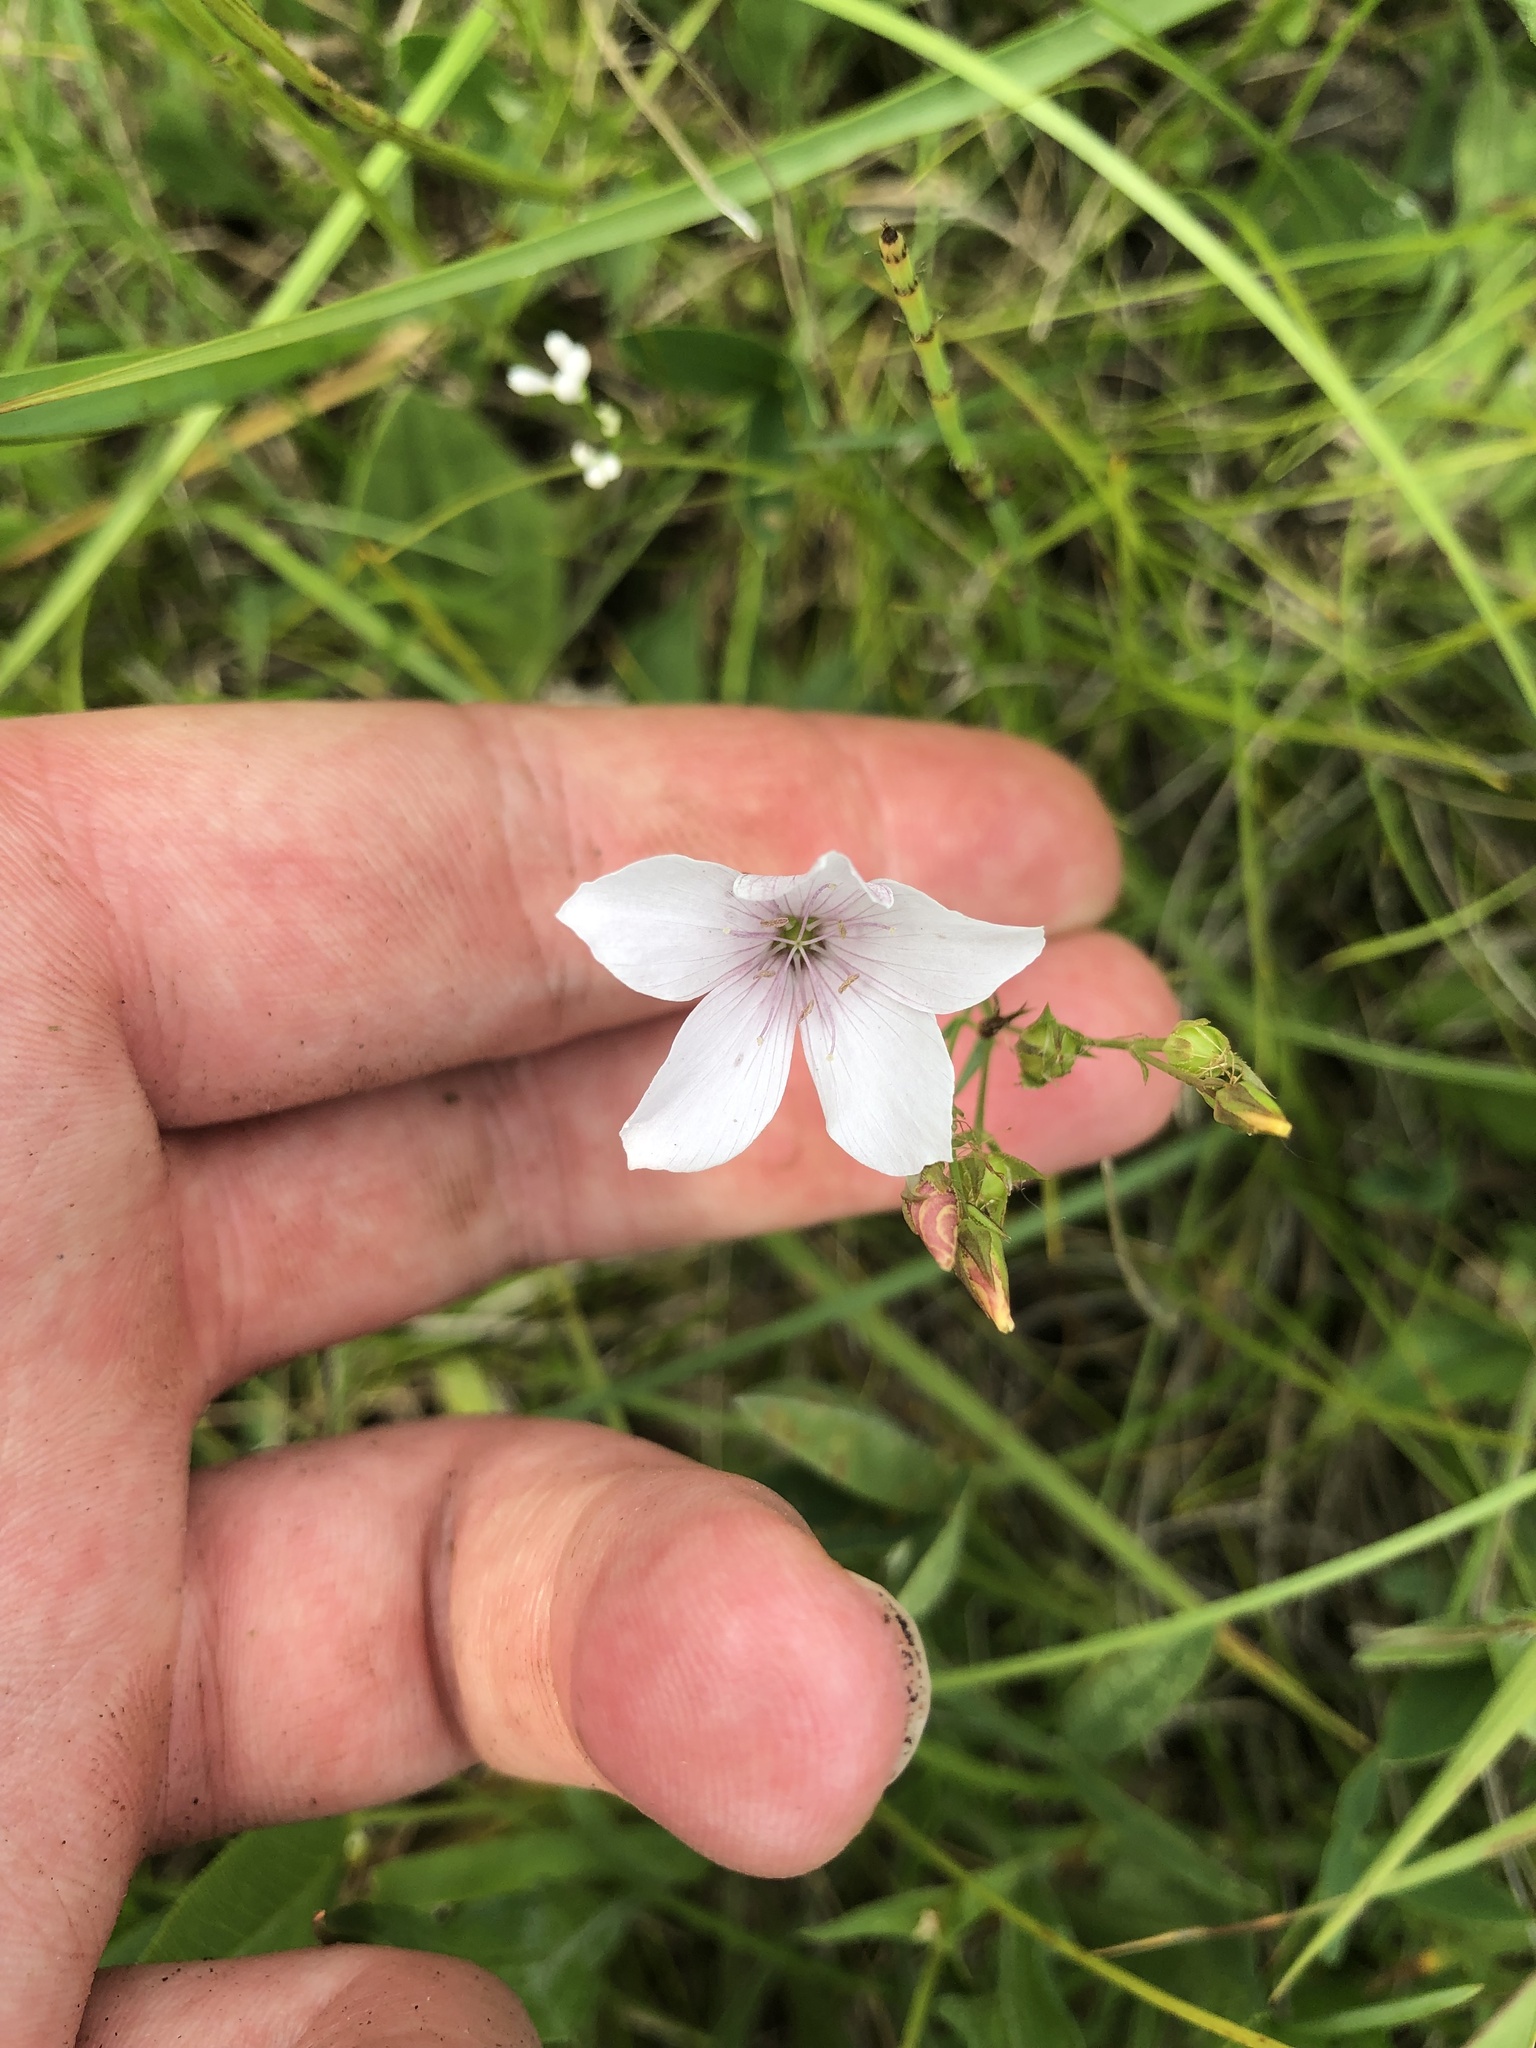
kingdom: Plantae
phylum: Tracheophyta
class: Magnoliopsida
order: Malpighiales
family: Linaceae
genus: Linum
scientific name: Linum tenuifolium
